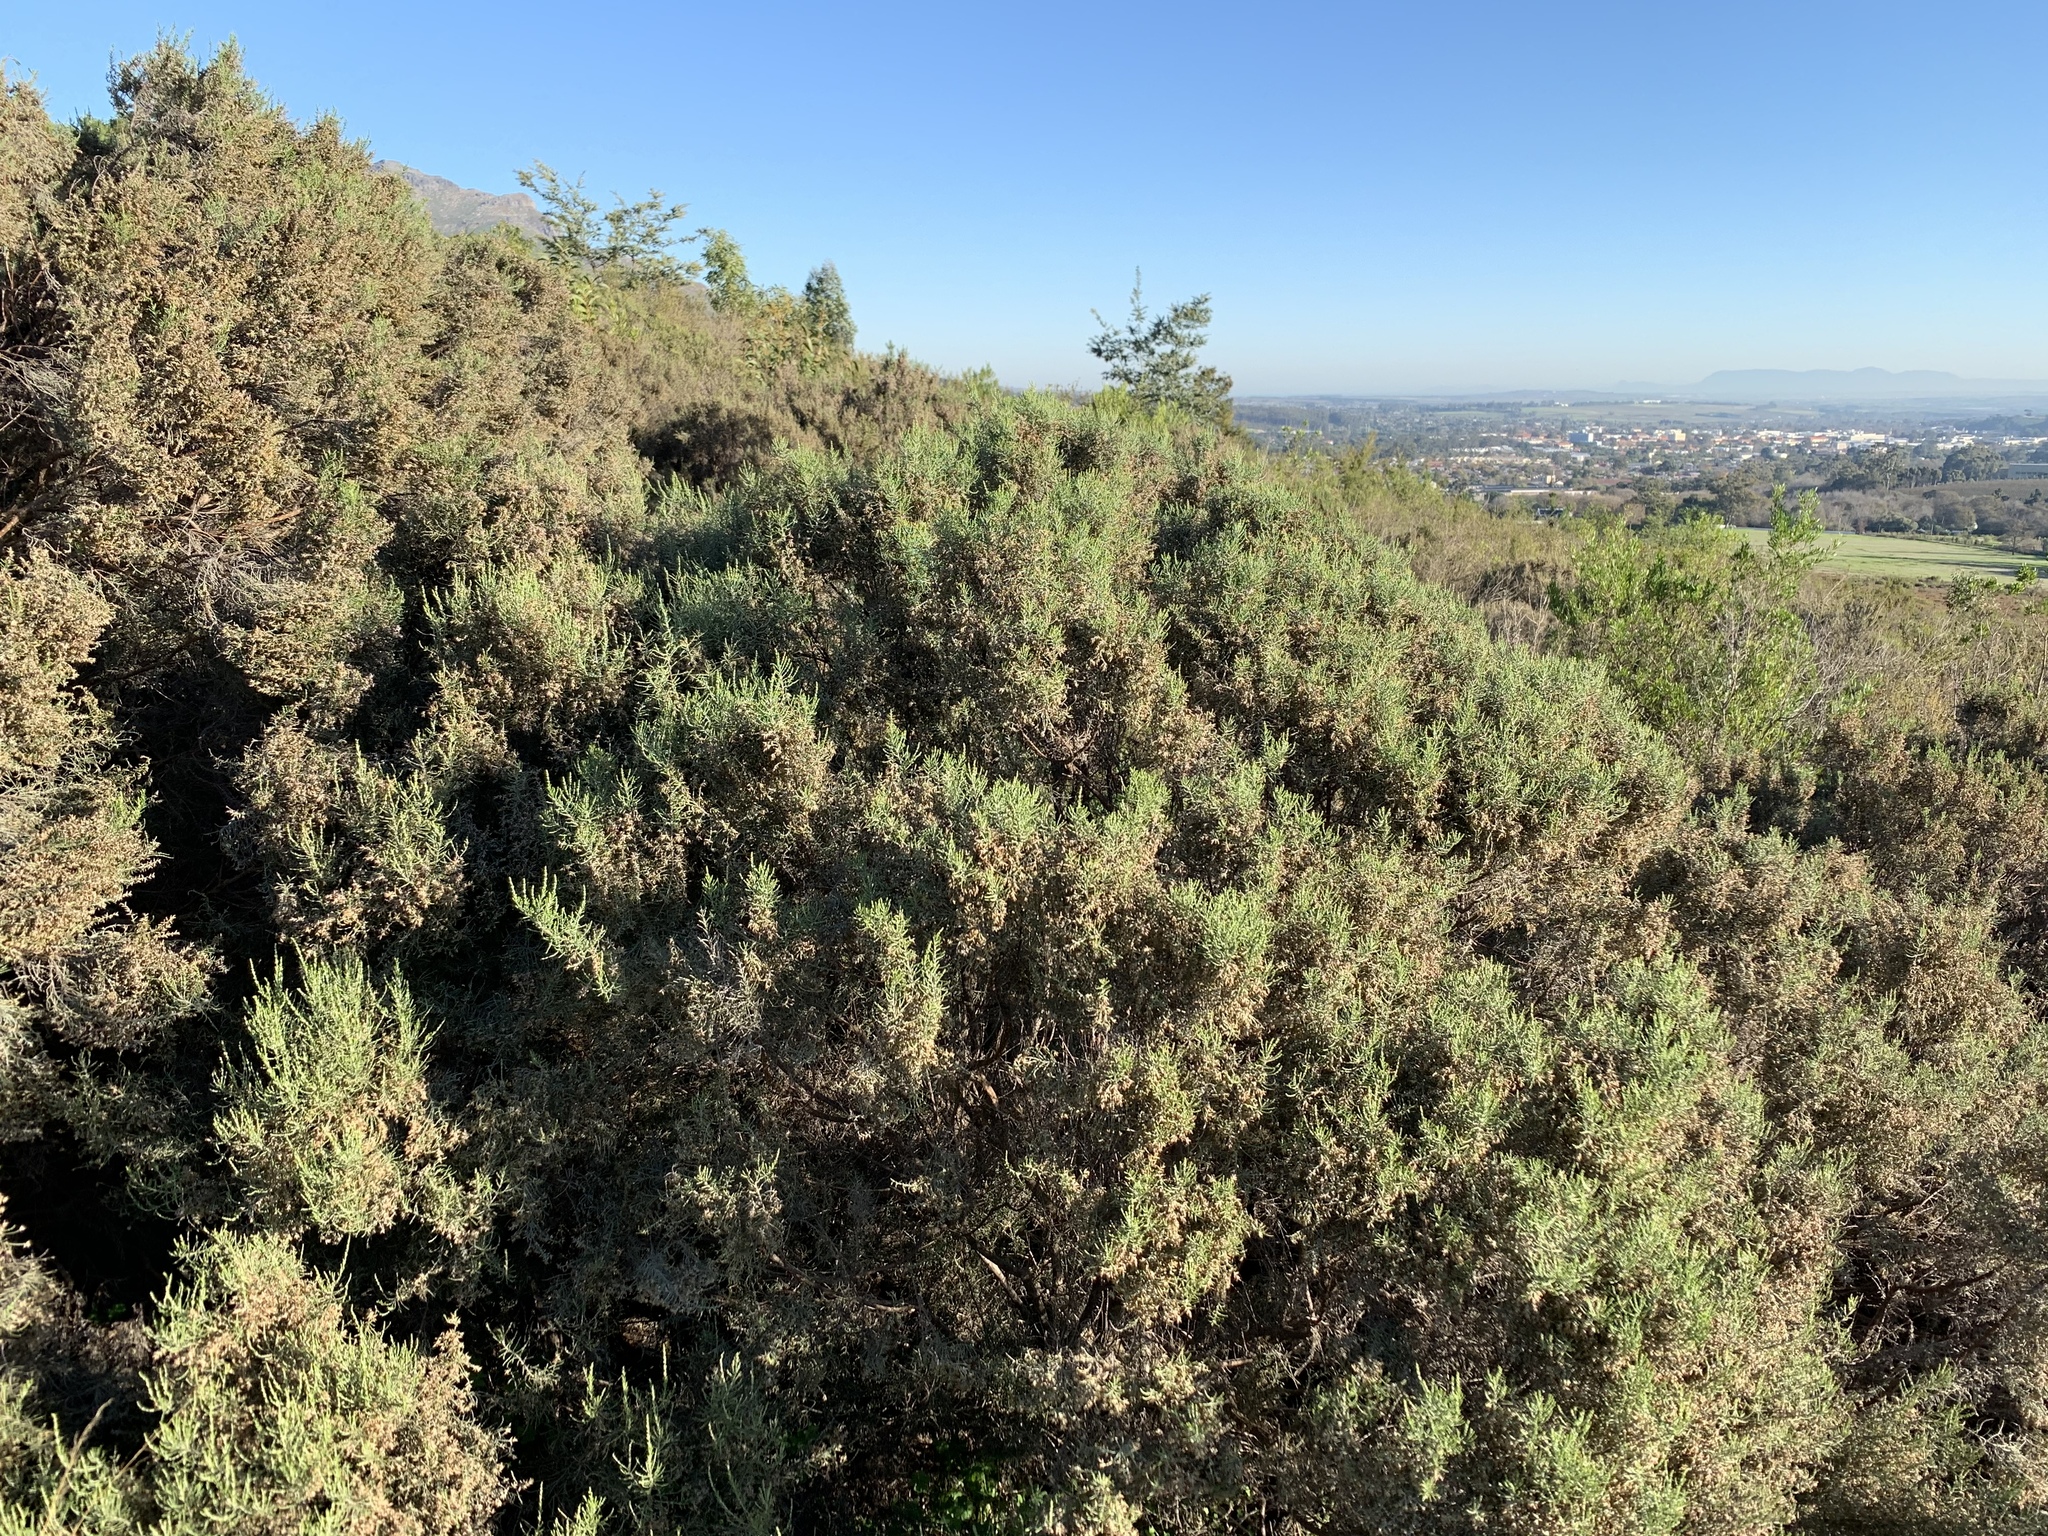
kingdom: Plantae
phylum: Tracheophyta
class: Magnoliopsida
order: Asterales
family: Asteraceae
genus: Dicerothamnus
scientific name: Dicerothamnus rhinocerotis
